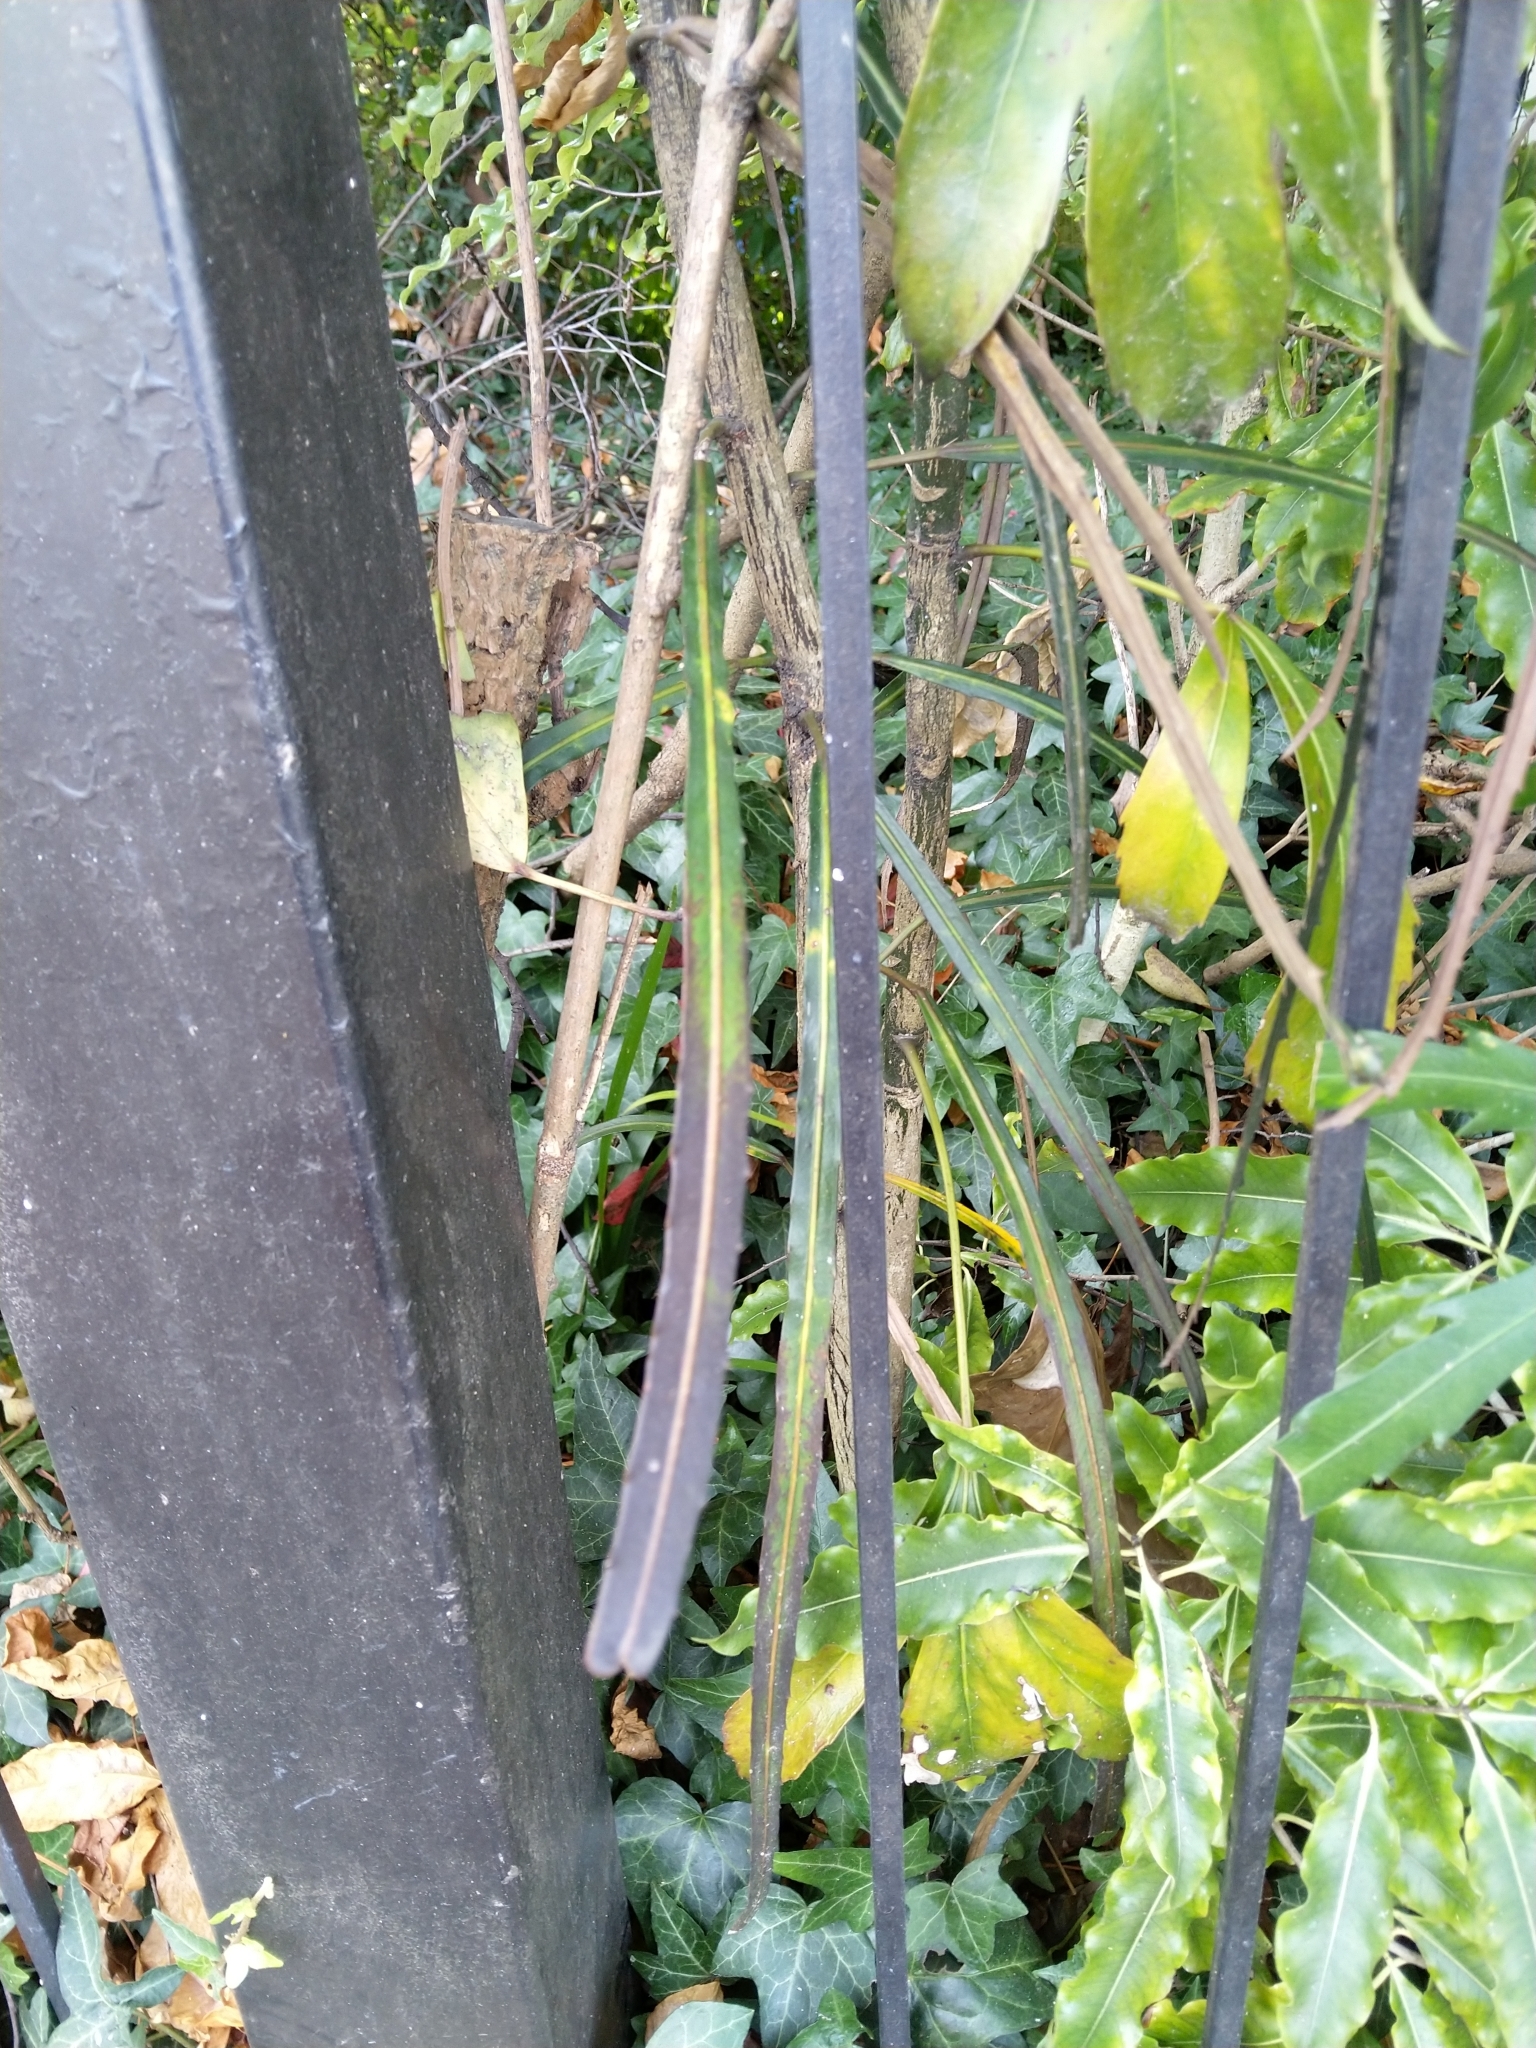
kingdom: Plantae
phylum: Tracheophyta
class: Magnoliopsida
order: Apiales
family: Araliaceae
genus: Pseudopanax
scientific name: Pseudopanax crassifolius
